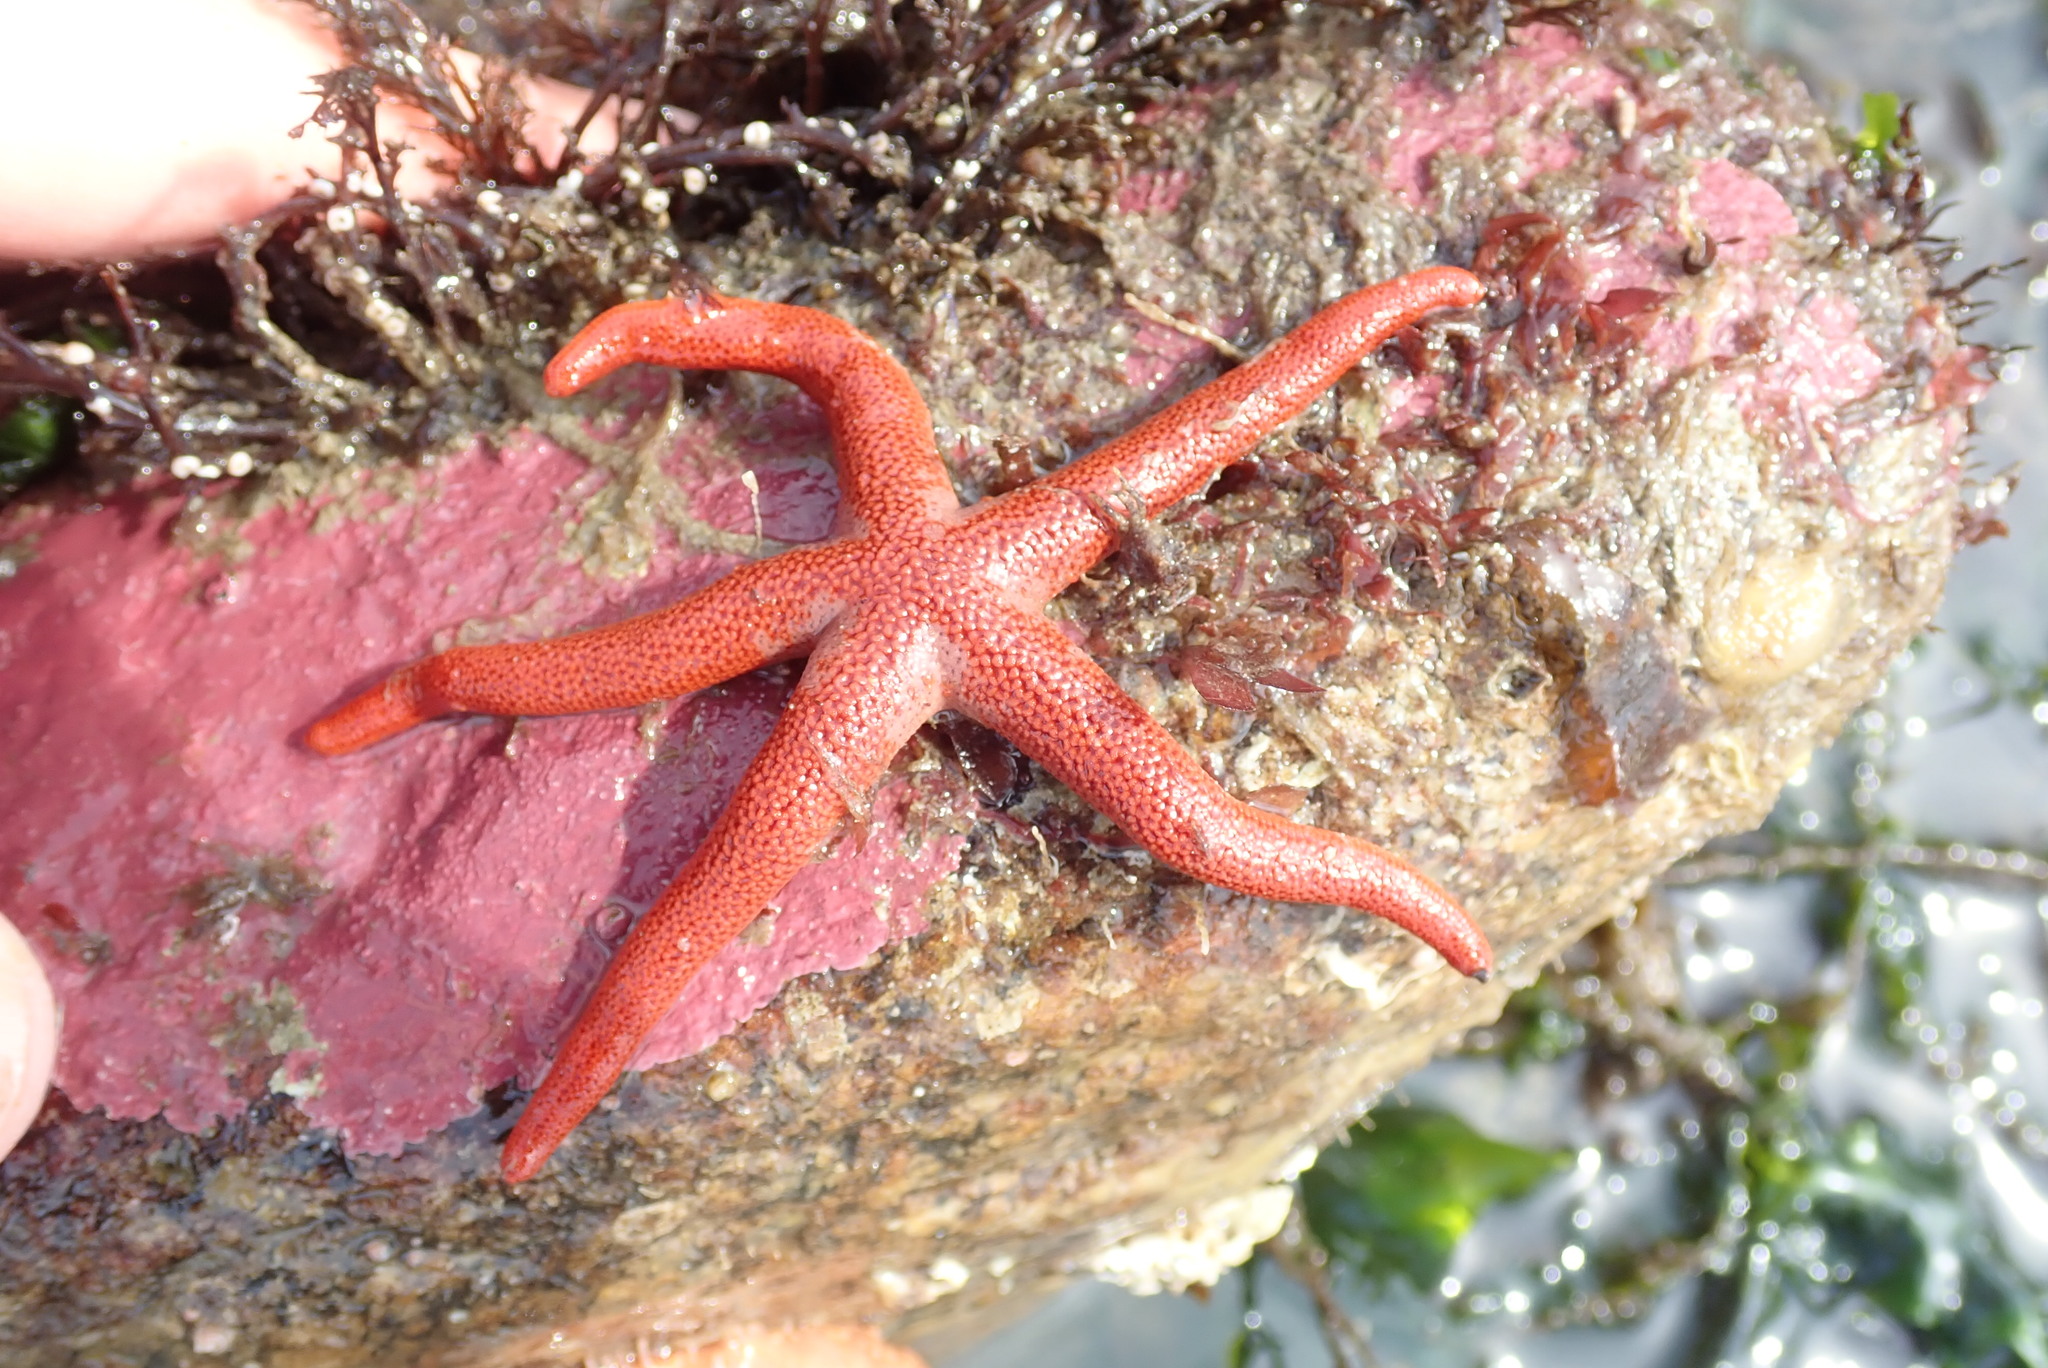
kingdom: Animalia
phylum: Echinodermata
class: Asteroidea
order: Spinulosida
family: Echinasteridae
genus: Henricia
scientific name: Henricia leviuscula
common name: Pacific blood star
